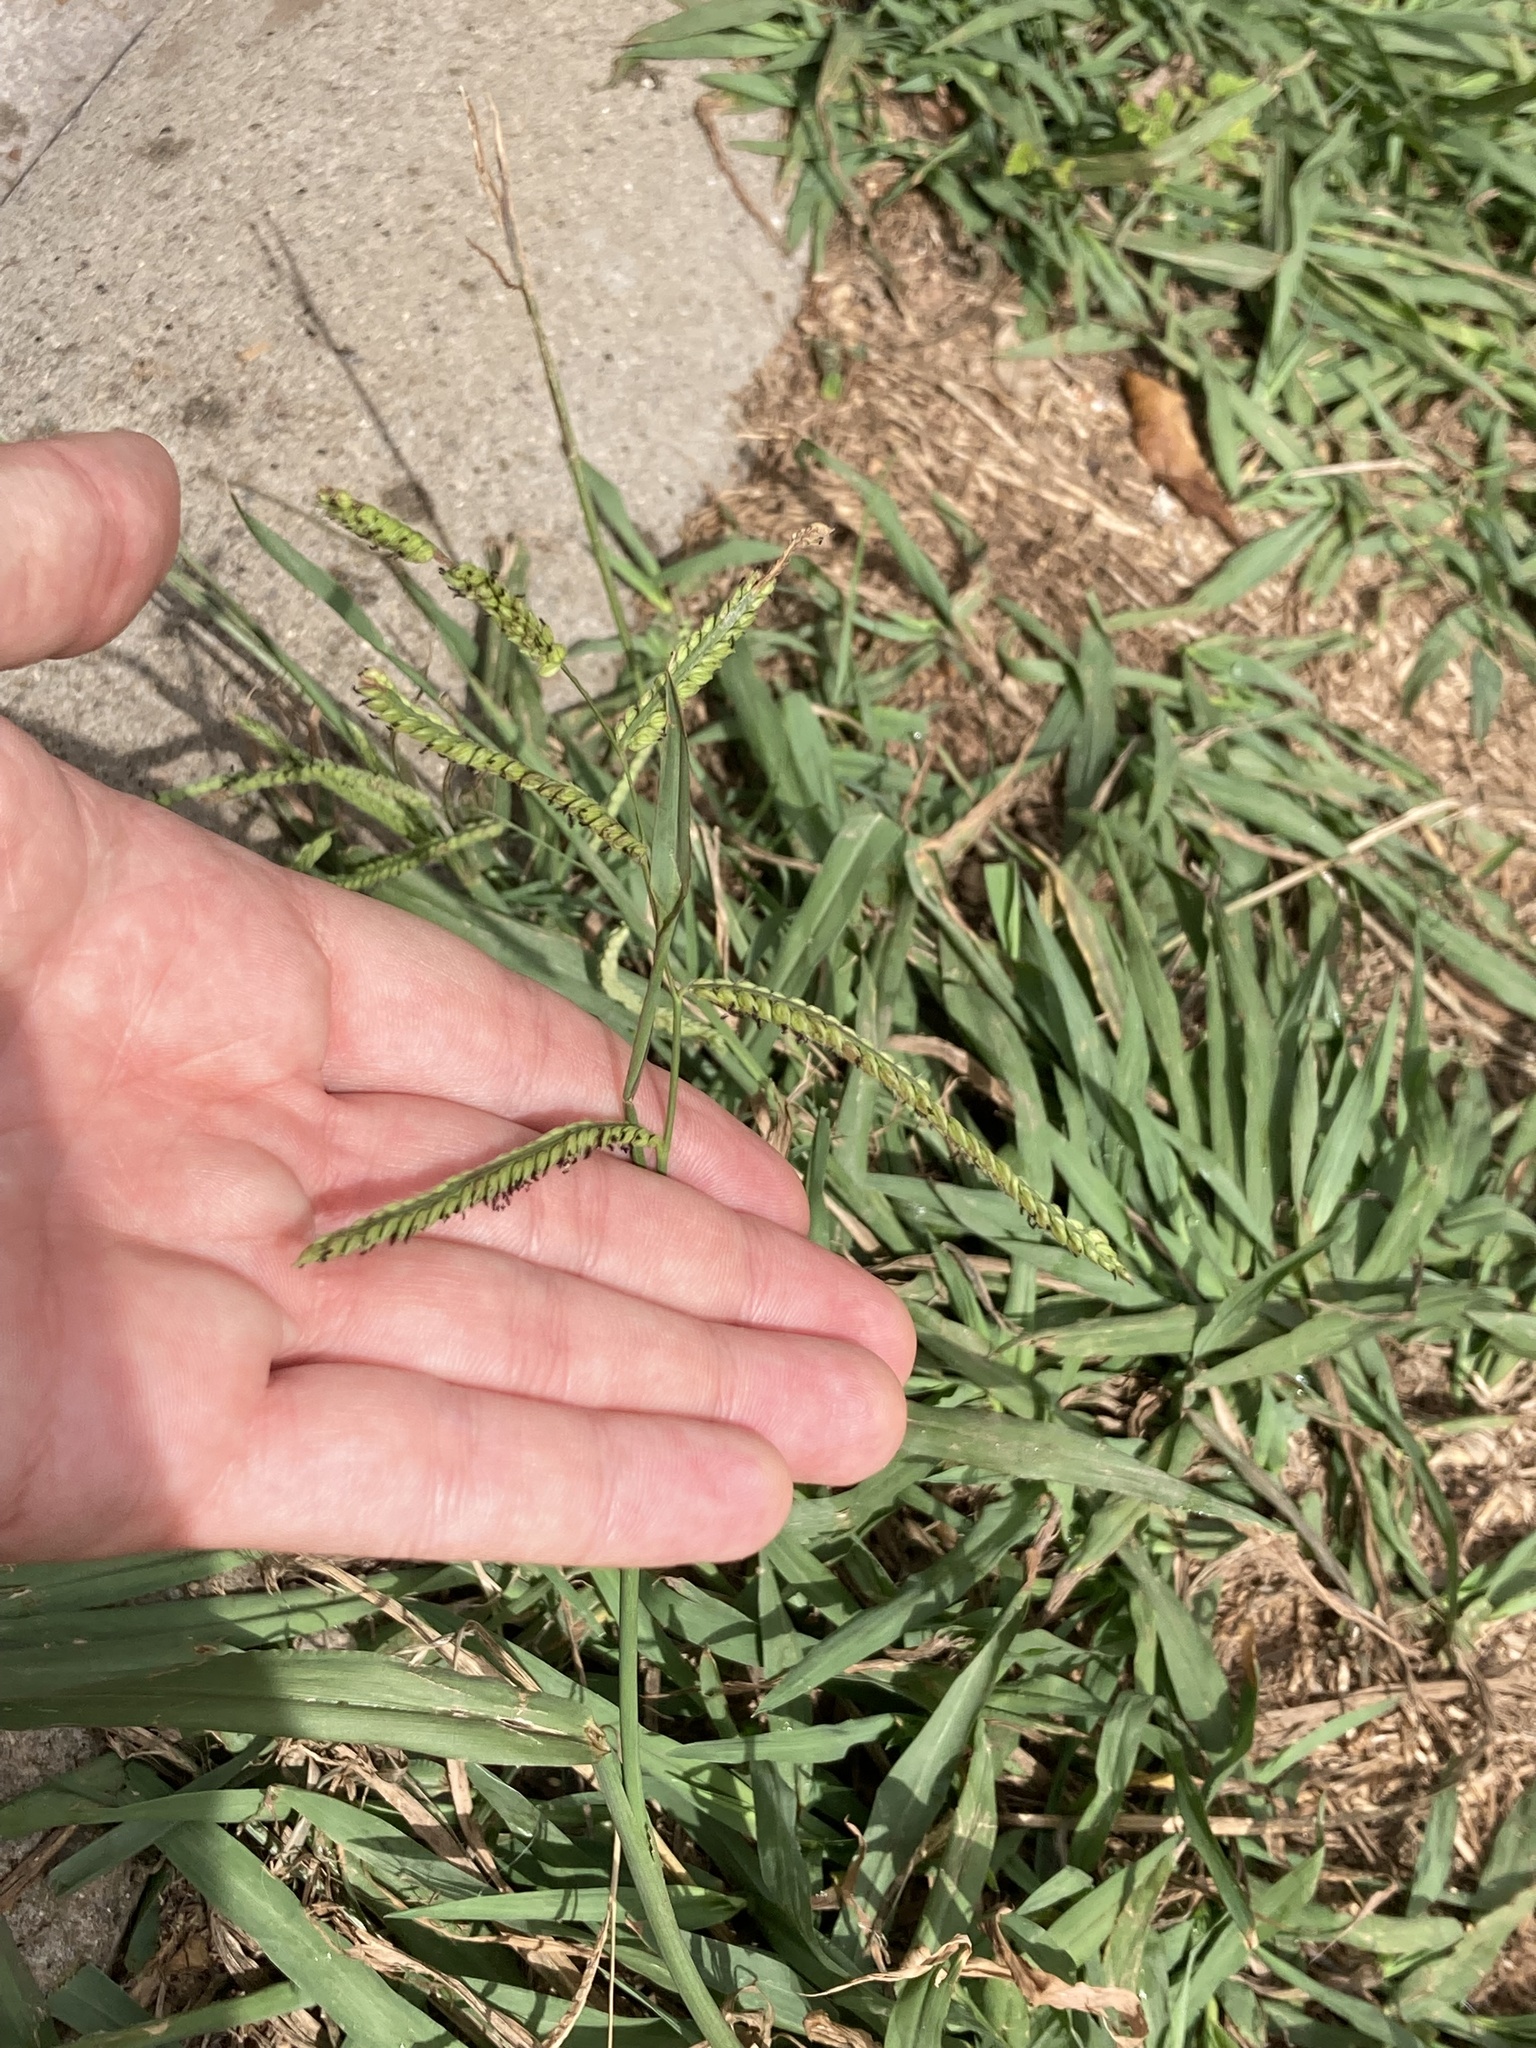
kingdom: Plantae
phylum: Tracheophyta
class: Liliopsida
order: Poales
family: Poaceae
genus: Paspalum
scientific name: Paspalum dilatatum
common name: Dallisgrass
